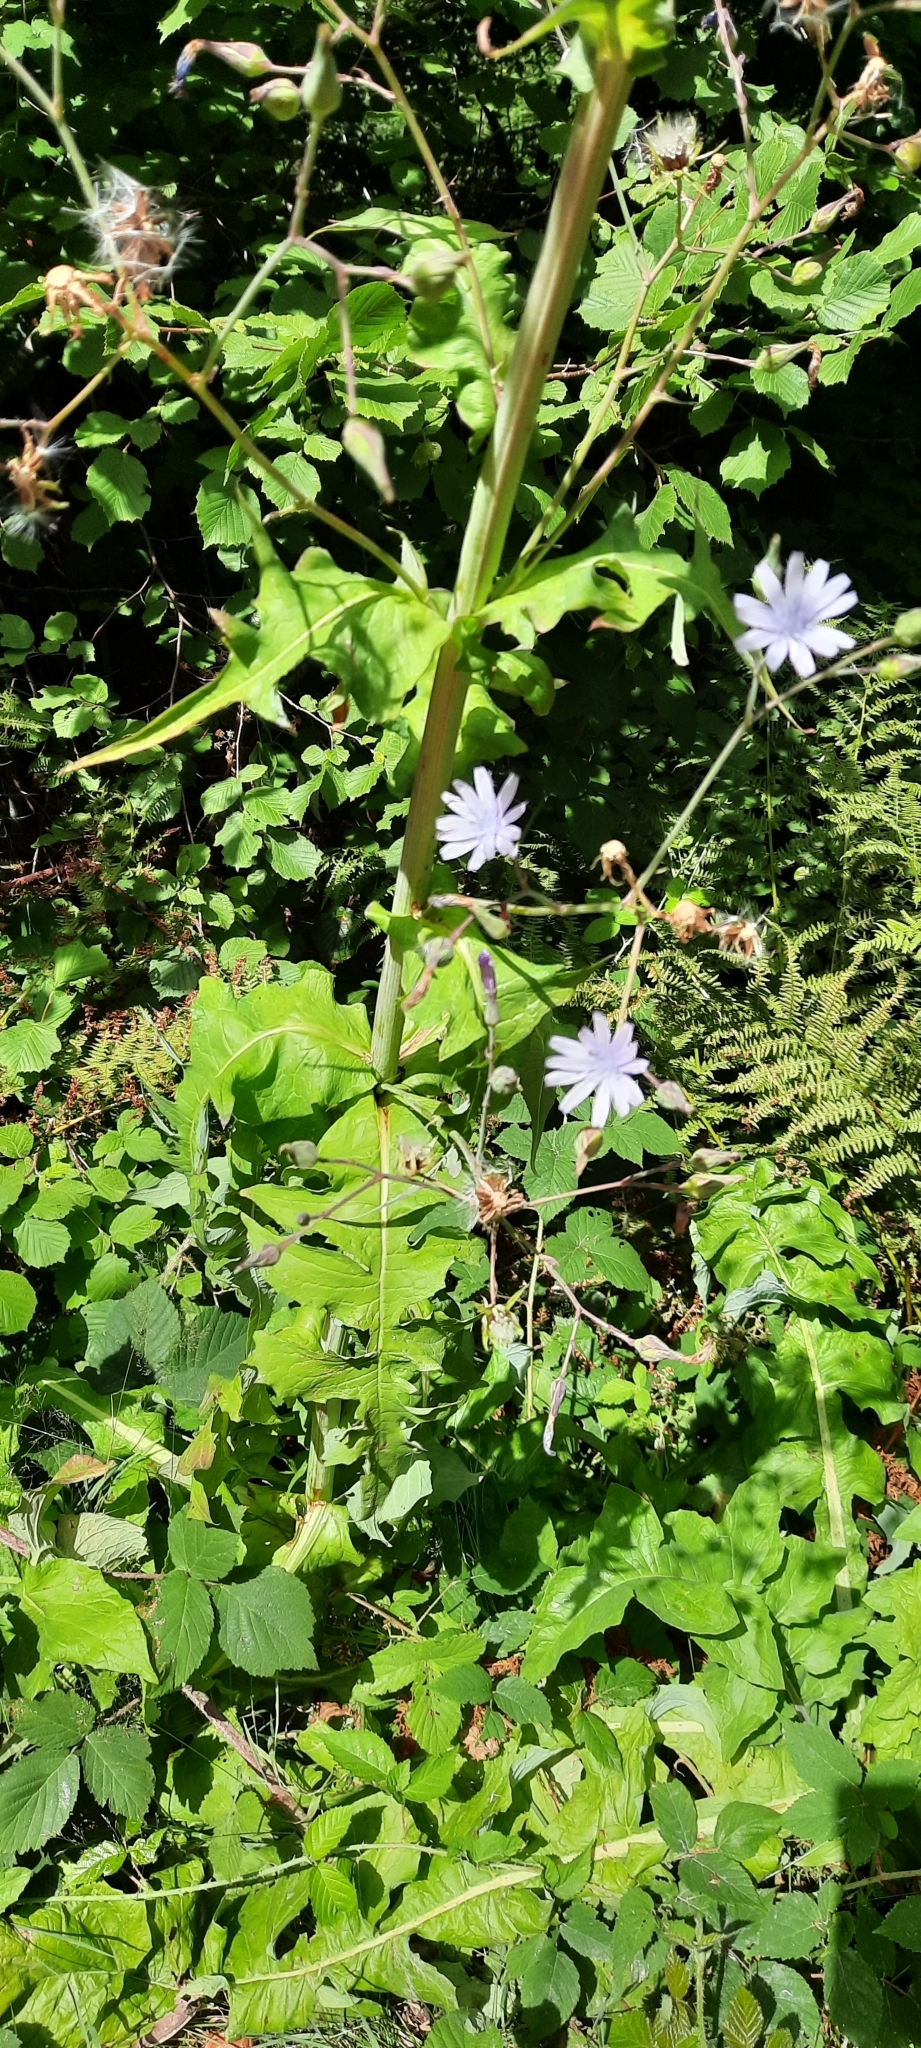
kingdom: Plantae
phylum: Tracheophyta
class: Magnoliopsida
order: Asterales
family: Asteraceae
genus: Lactuca
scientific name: Lactuca plumieri
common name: Hairless blue-sow-thistle
